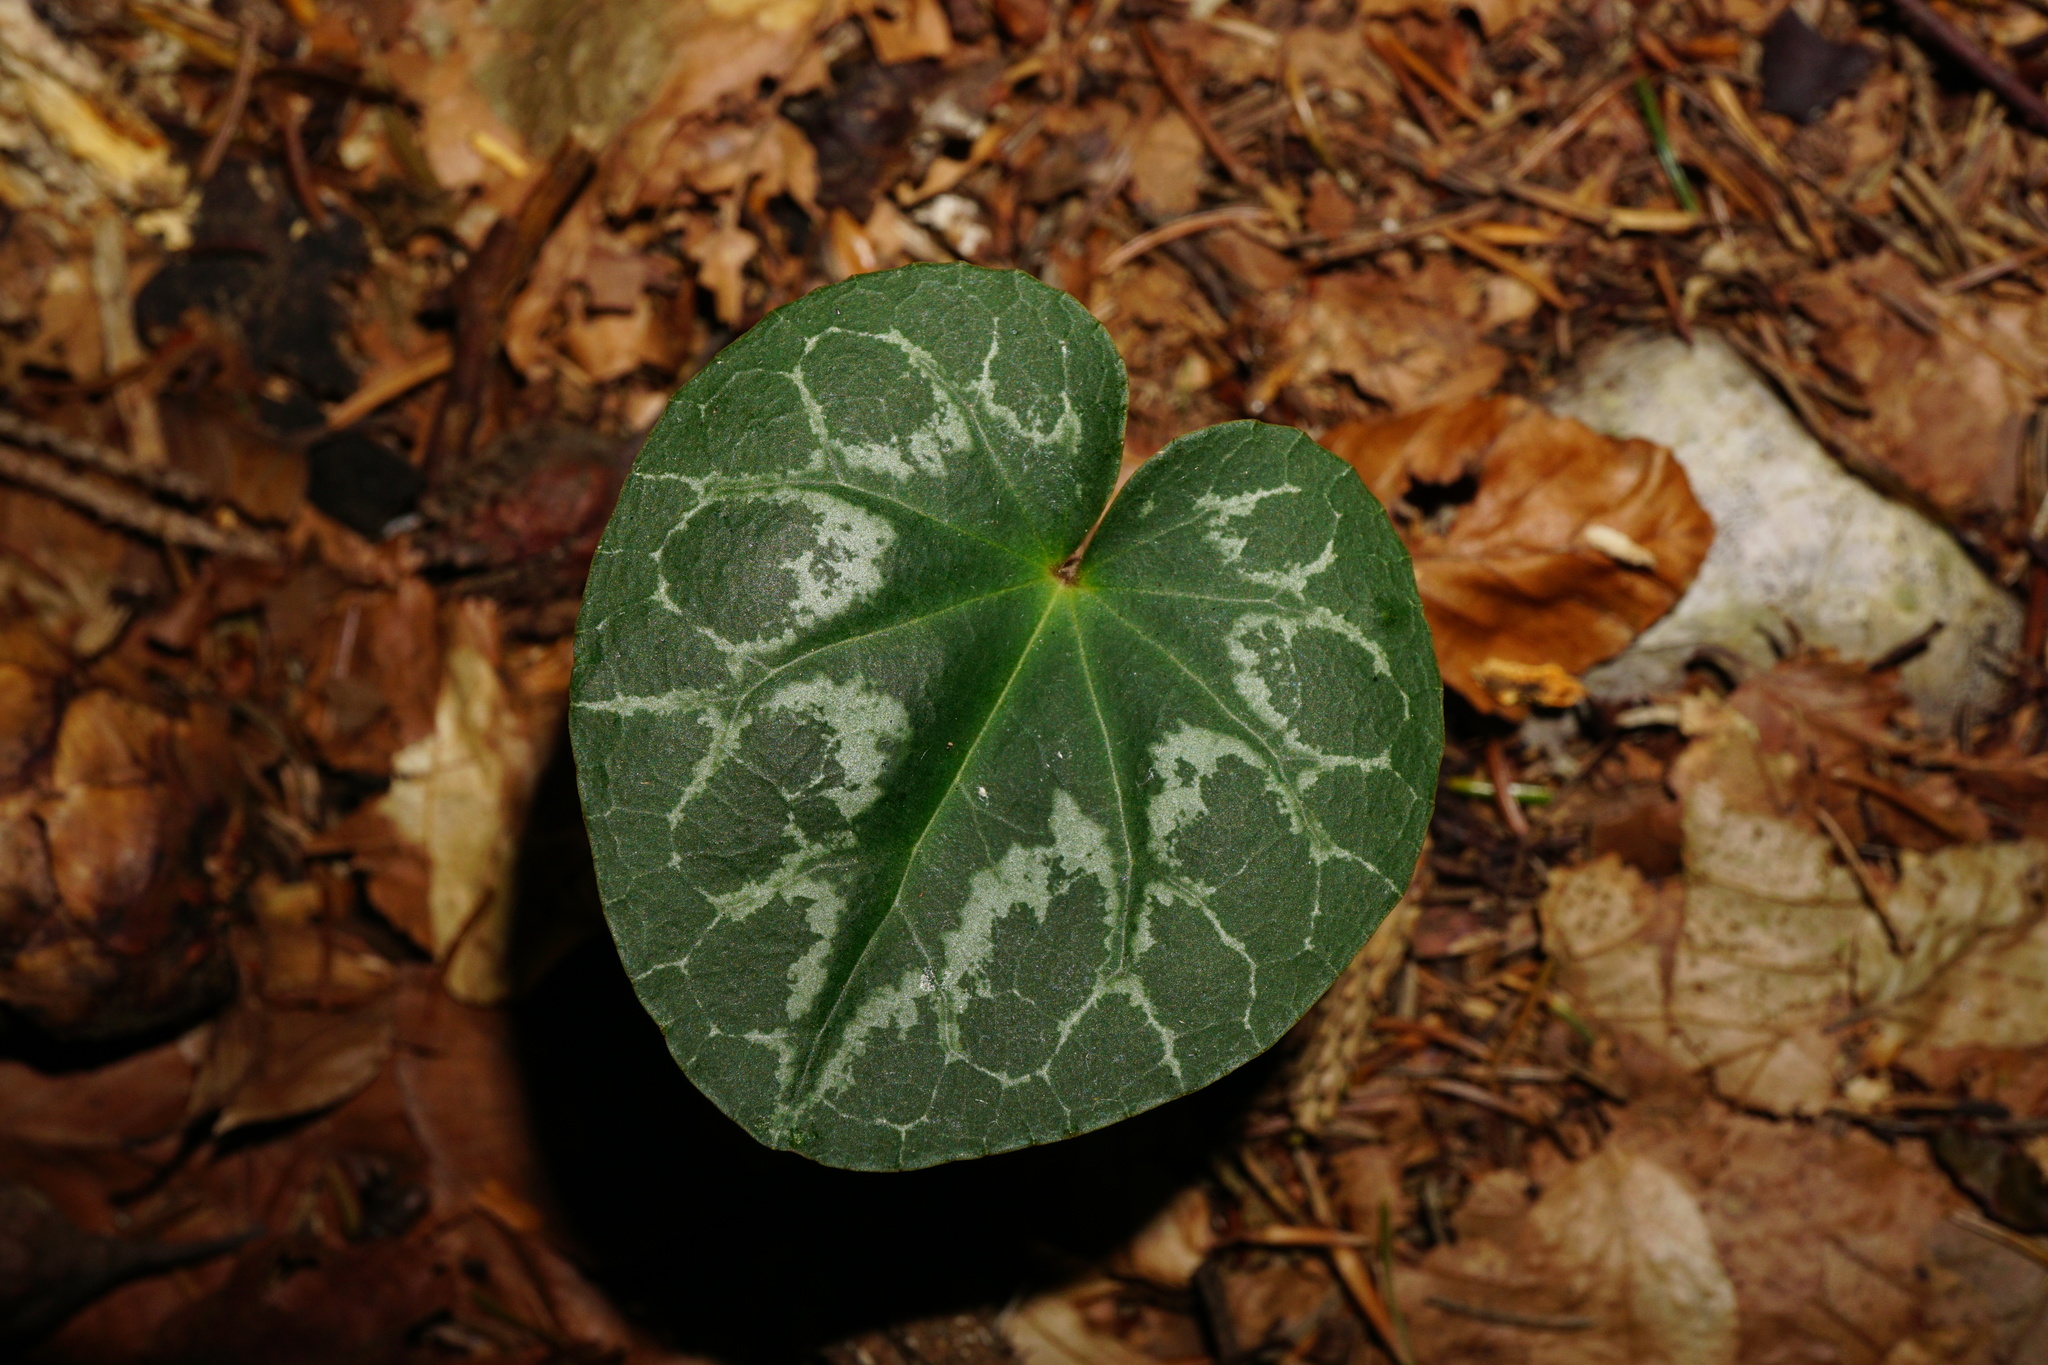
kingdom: Plantae
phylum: Tracheophyta
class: Magnoliopsida
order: Ericales
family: Primulaceae
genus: Cyclamen
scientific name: Cyclamen purpurascens
